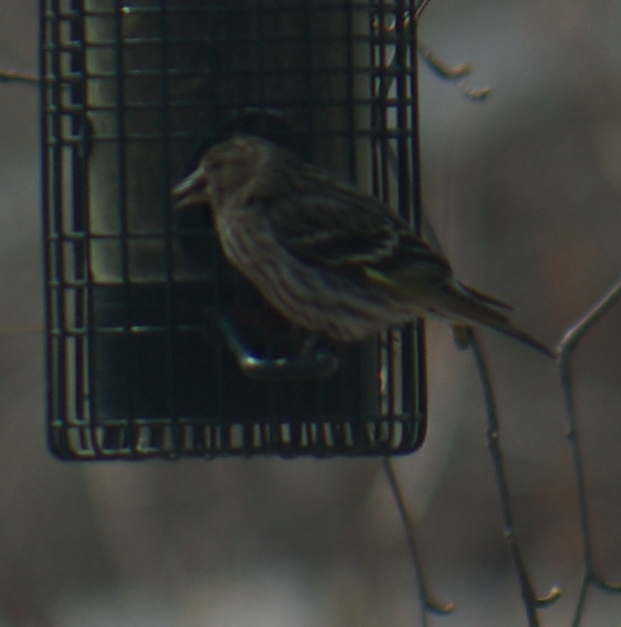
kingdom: Animalia
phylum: Chordata
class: Aves
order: Passeriformes
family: Fringillidae
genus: Spinus
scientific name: Spinus pinus
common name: Pine siskin
